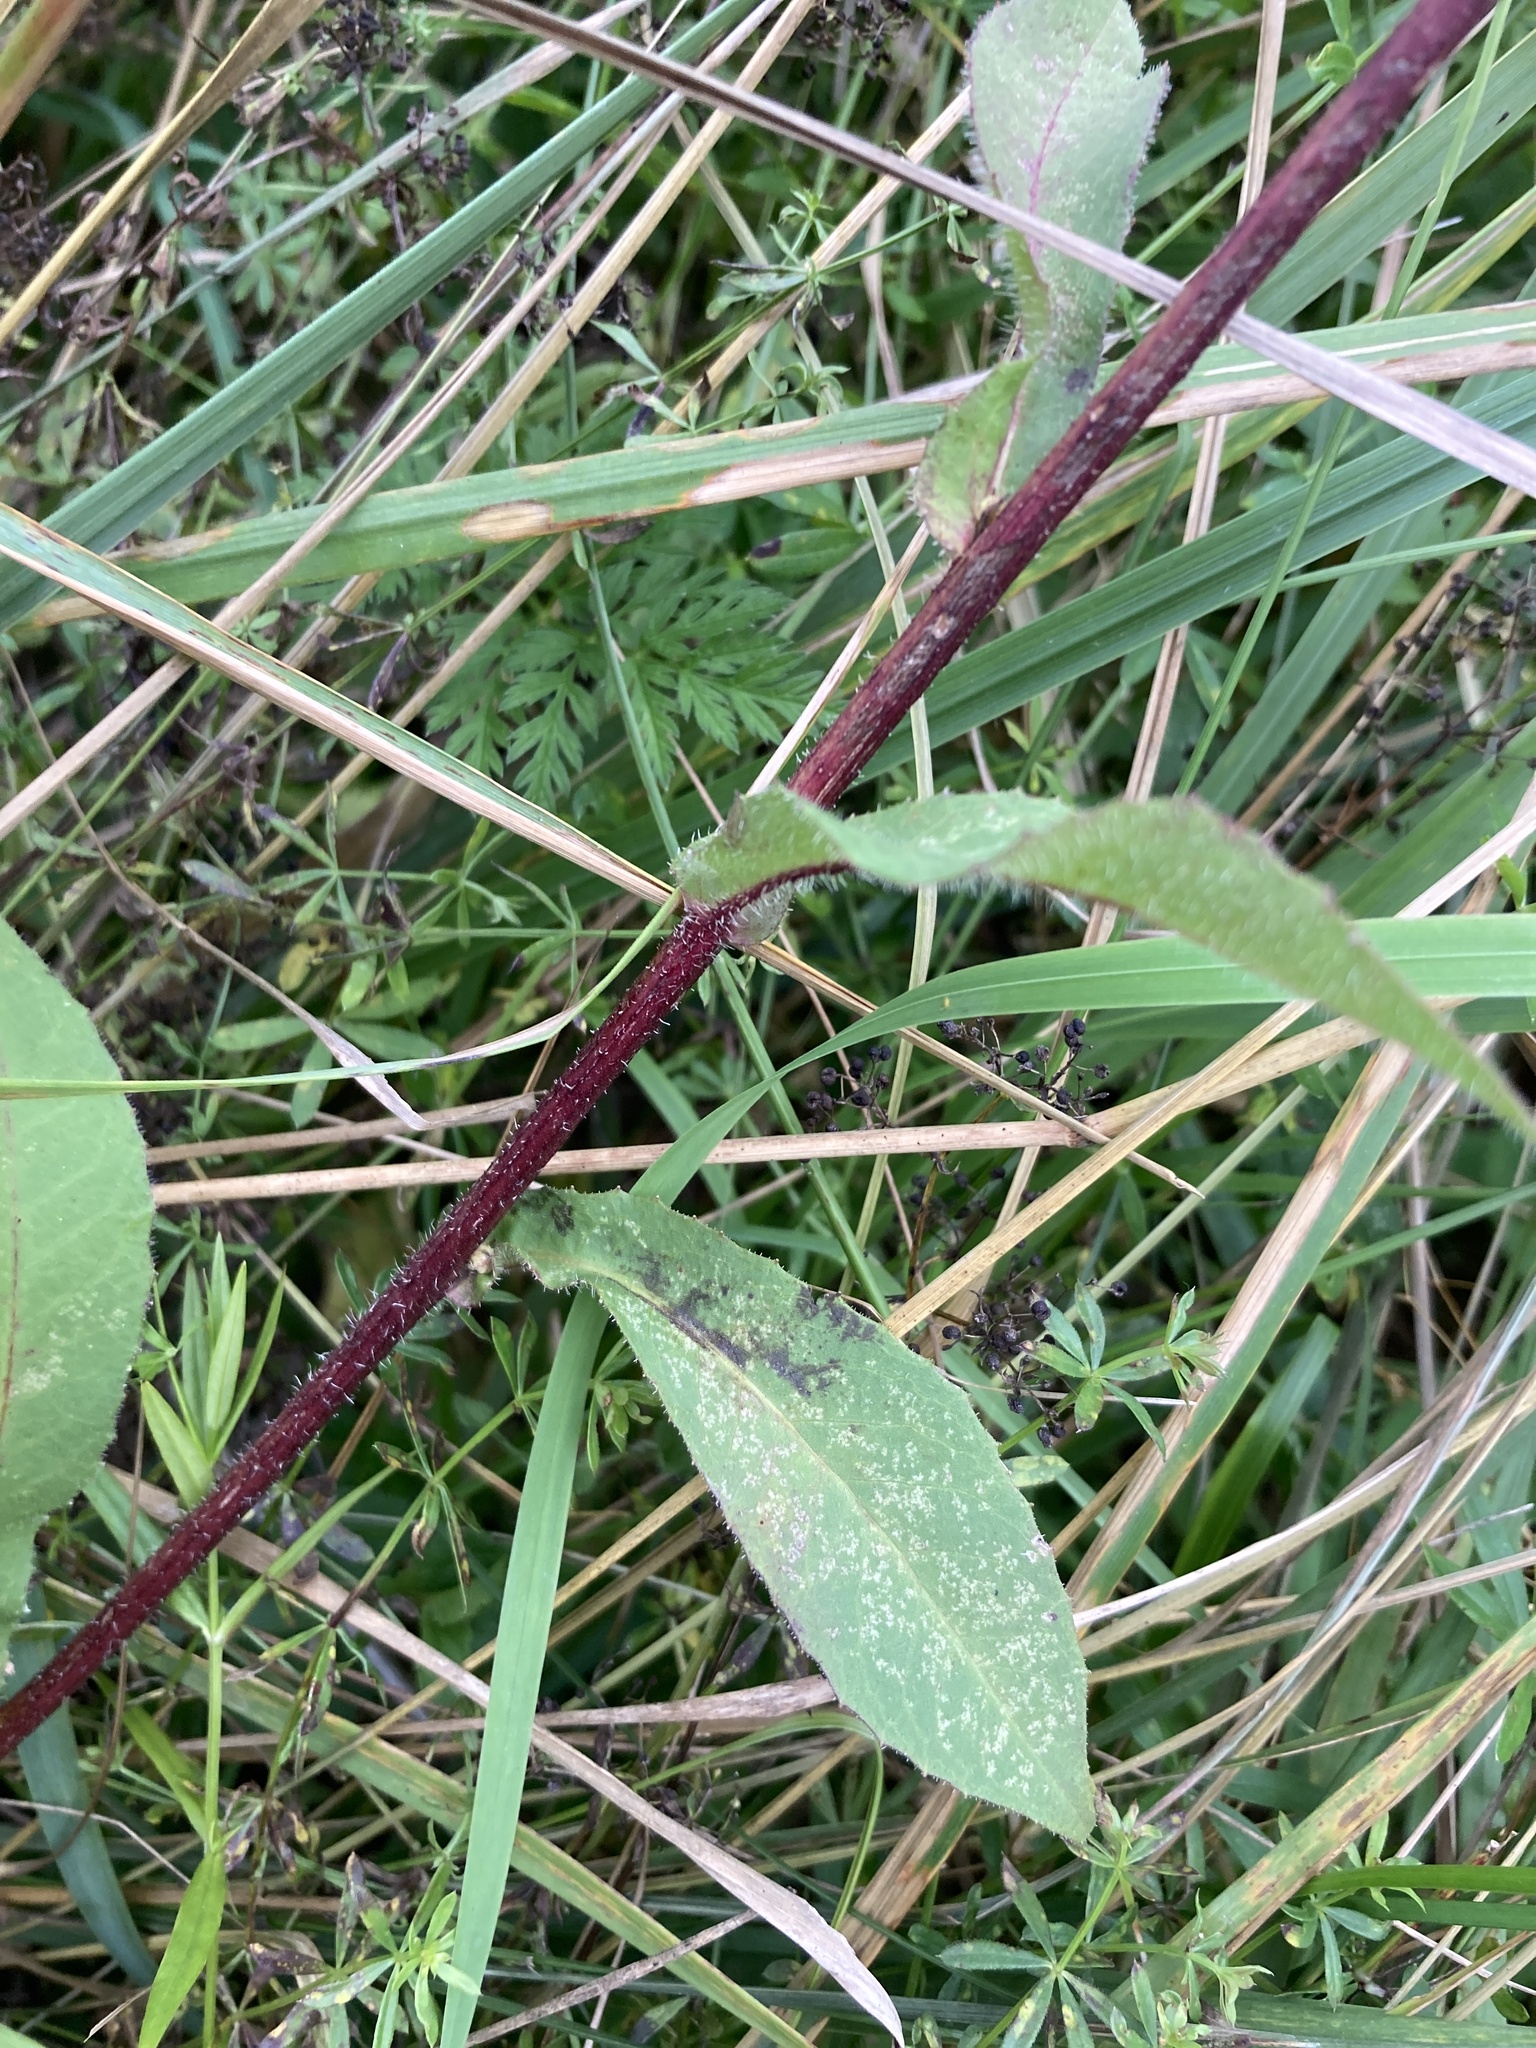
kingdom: Plantae
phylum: Tracheophyta
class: Magnoliopsida
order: Asterales
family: Asteraceae
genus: Picris
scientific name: Picris hieracioides
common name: Hawkweed oxtongue
